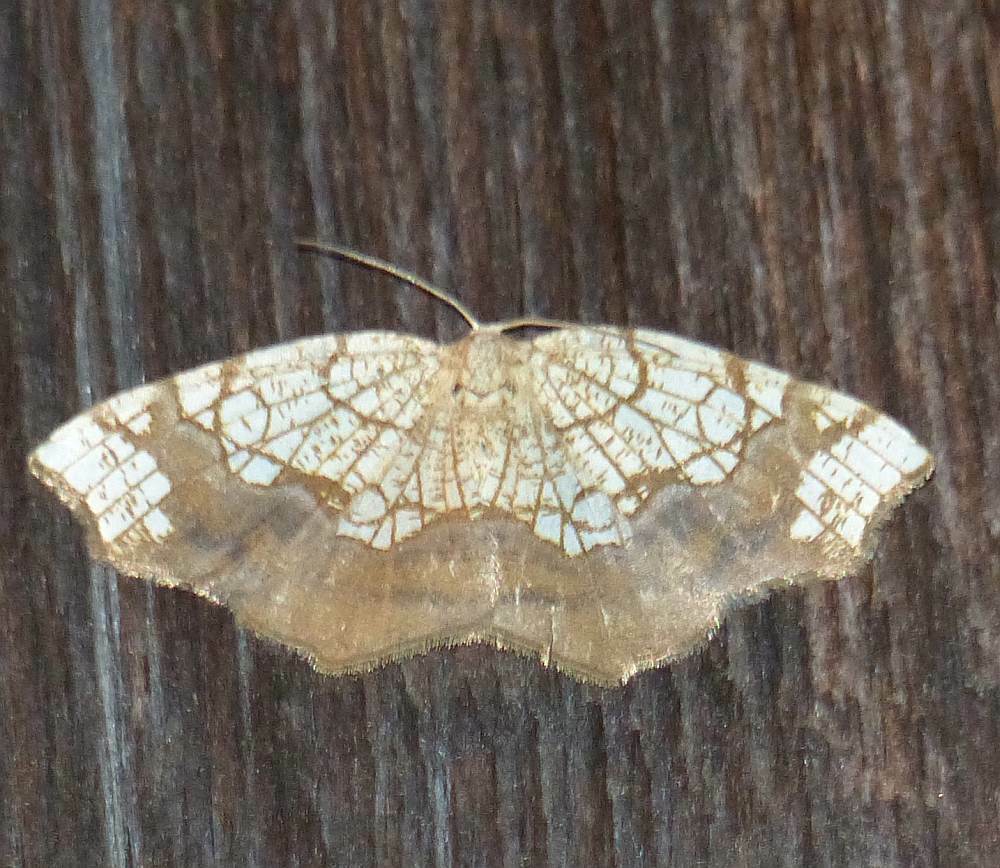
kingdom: Animalia
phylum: Arthropoda
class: Insecta
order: Lepidoptera
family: Geometridae
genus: Nematocampa
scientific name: Nematocampa resistaria
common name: Horned spanworm moth
